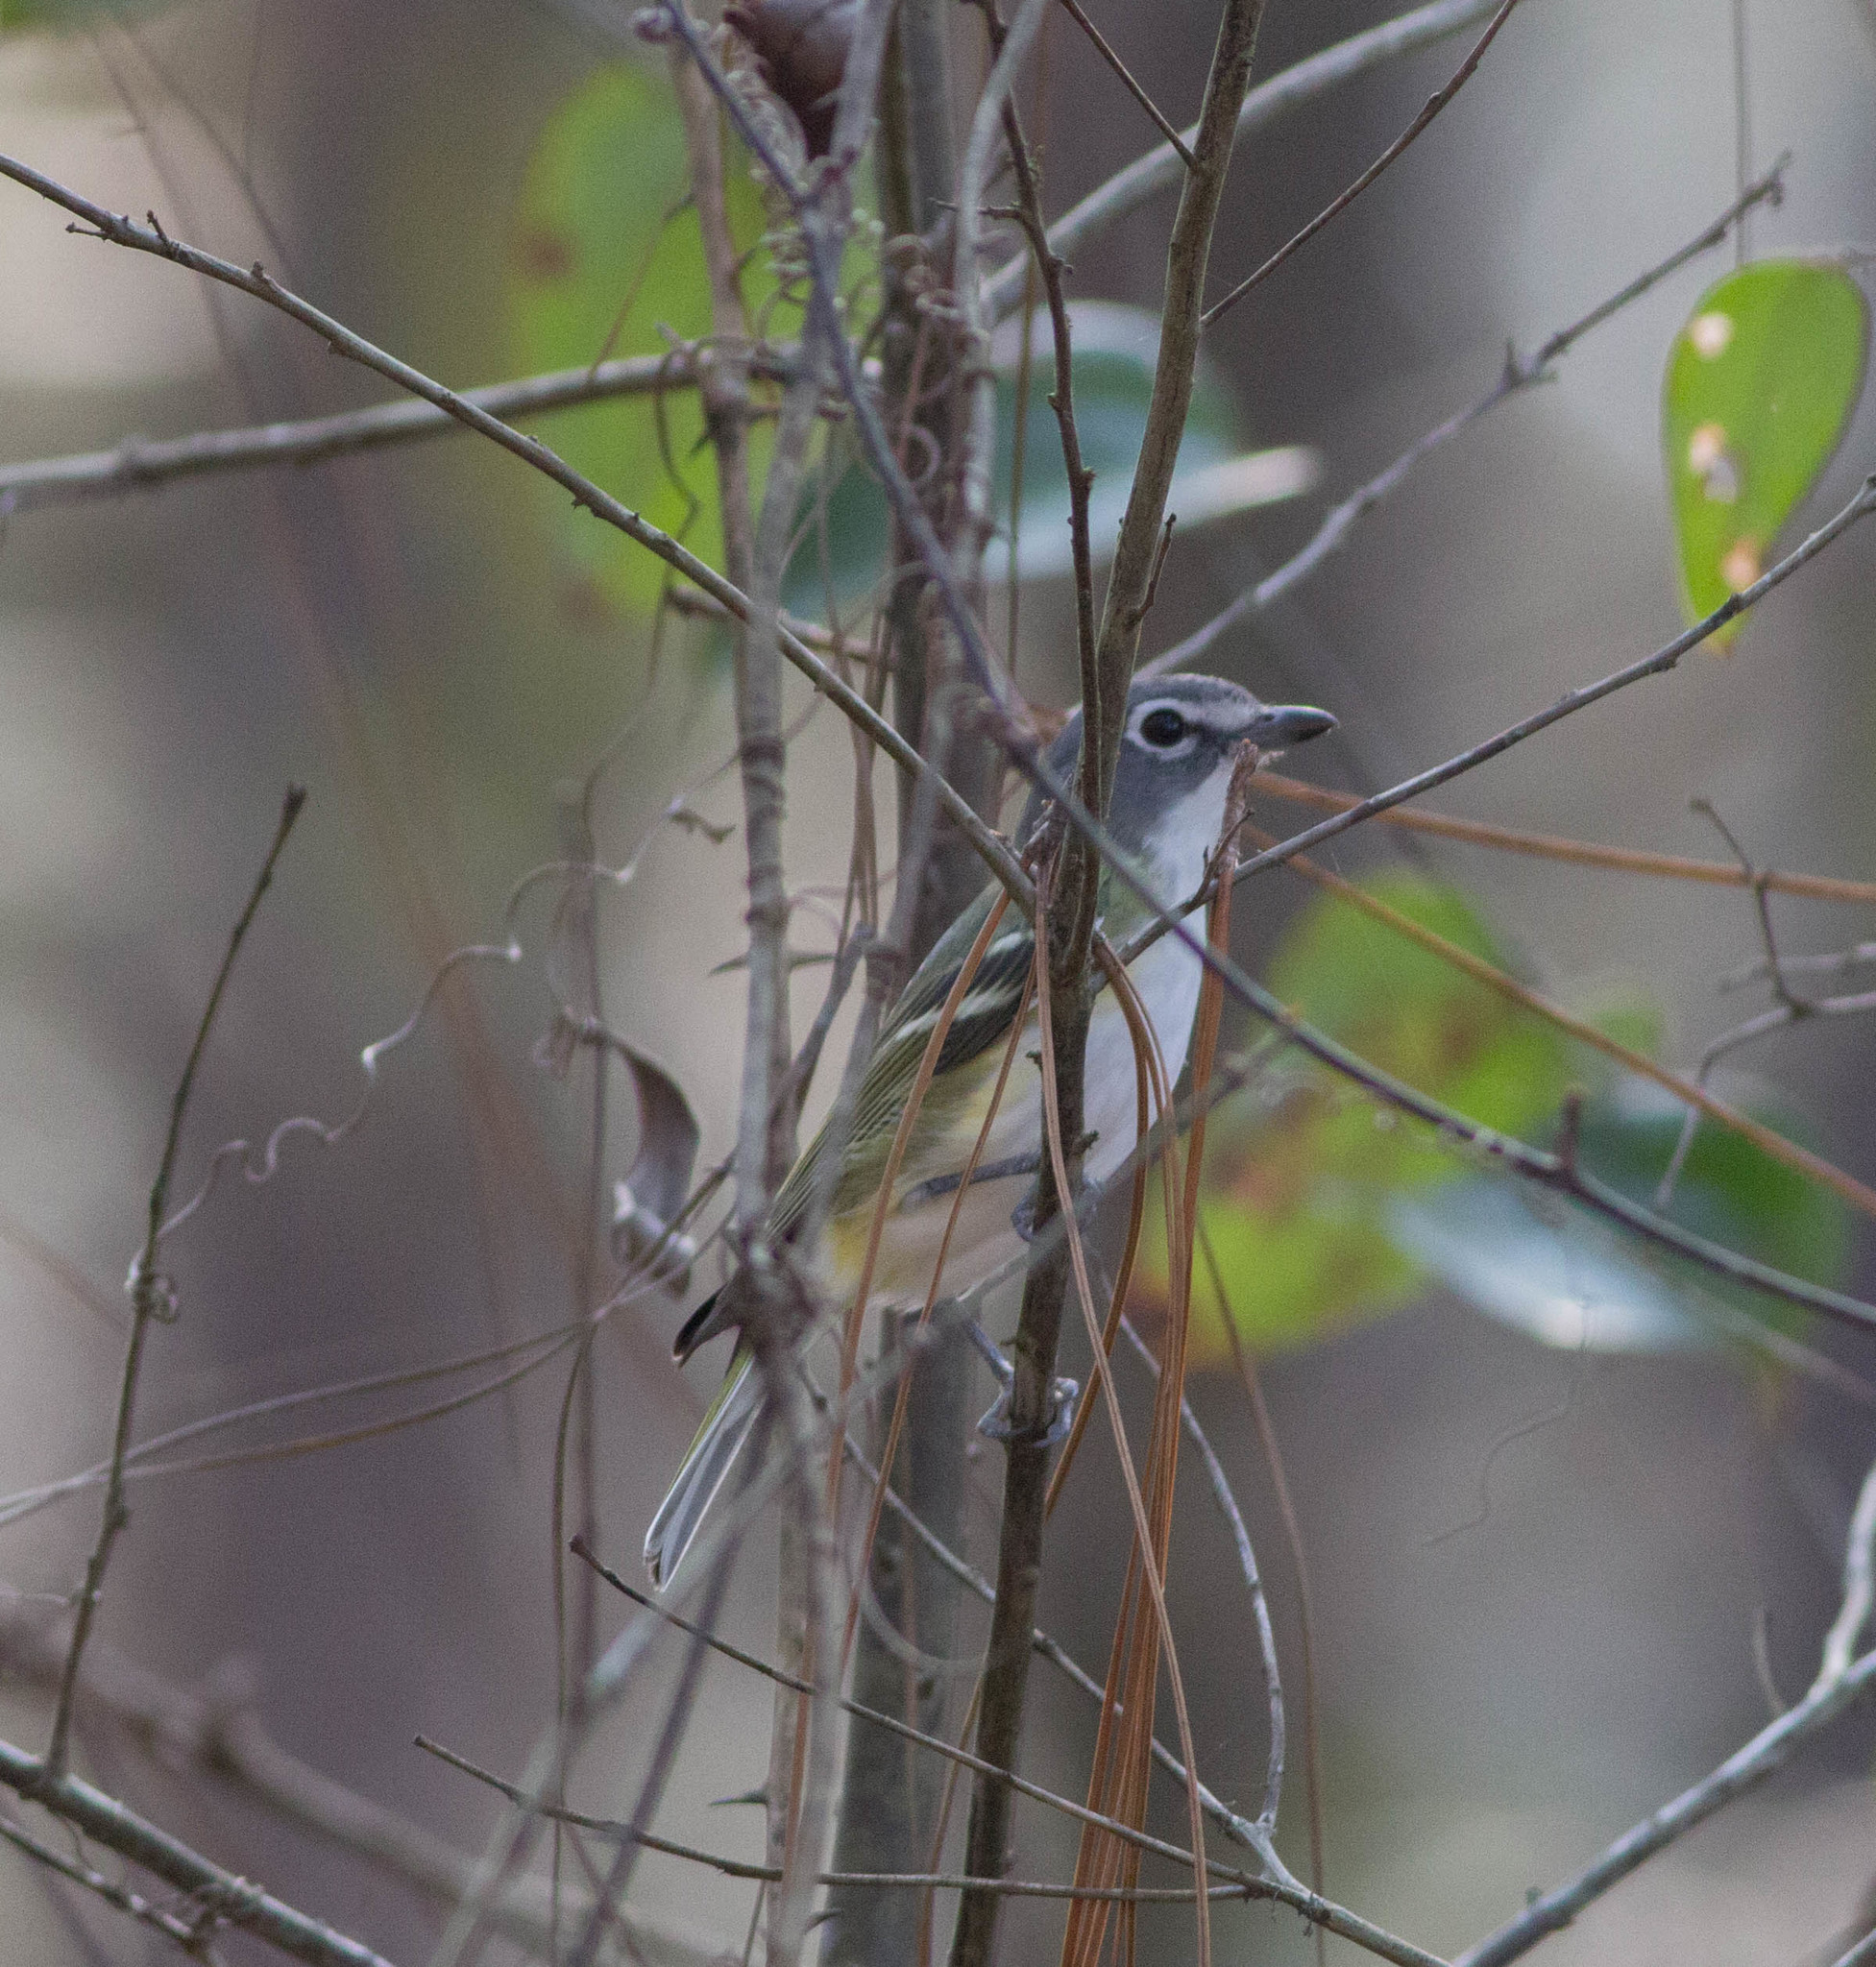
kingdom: Animalia
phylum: Chordata
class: Aves
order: Passeriformes
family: Vireonidae
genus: Vireo
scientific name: Vireo solitarius
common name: Blue-headed vireo
